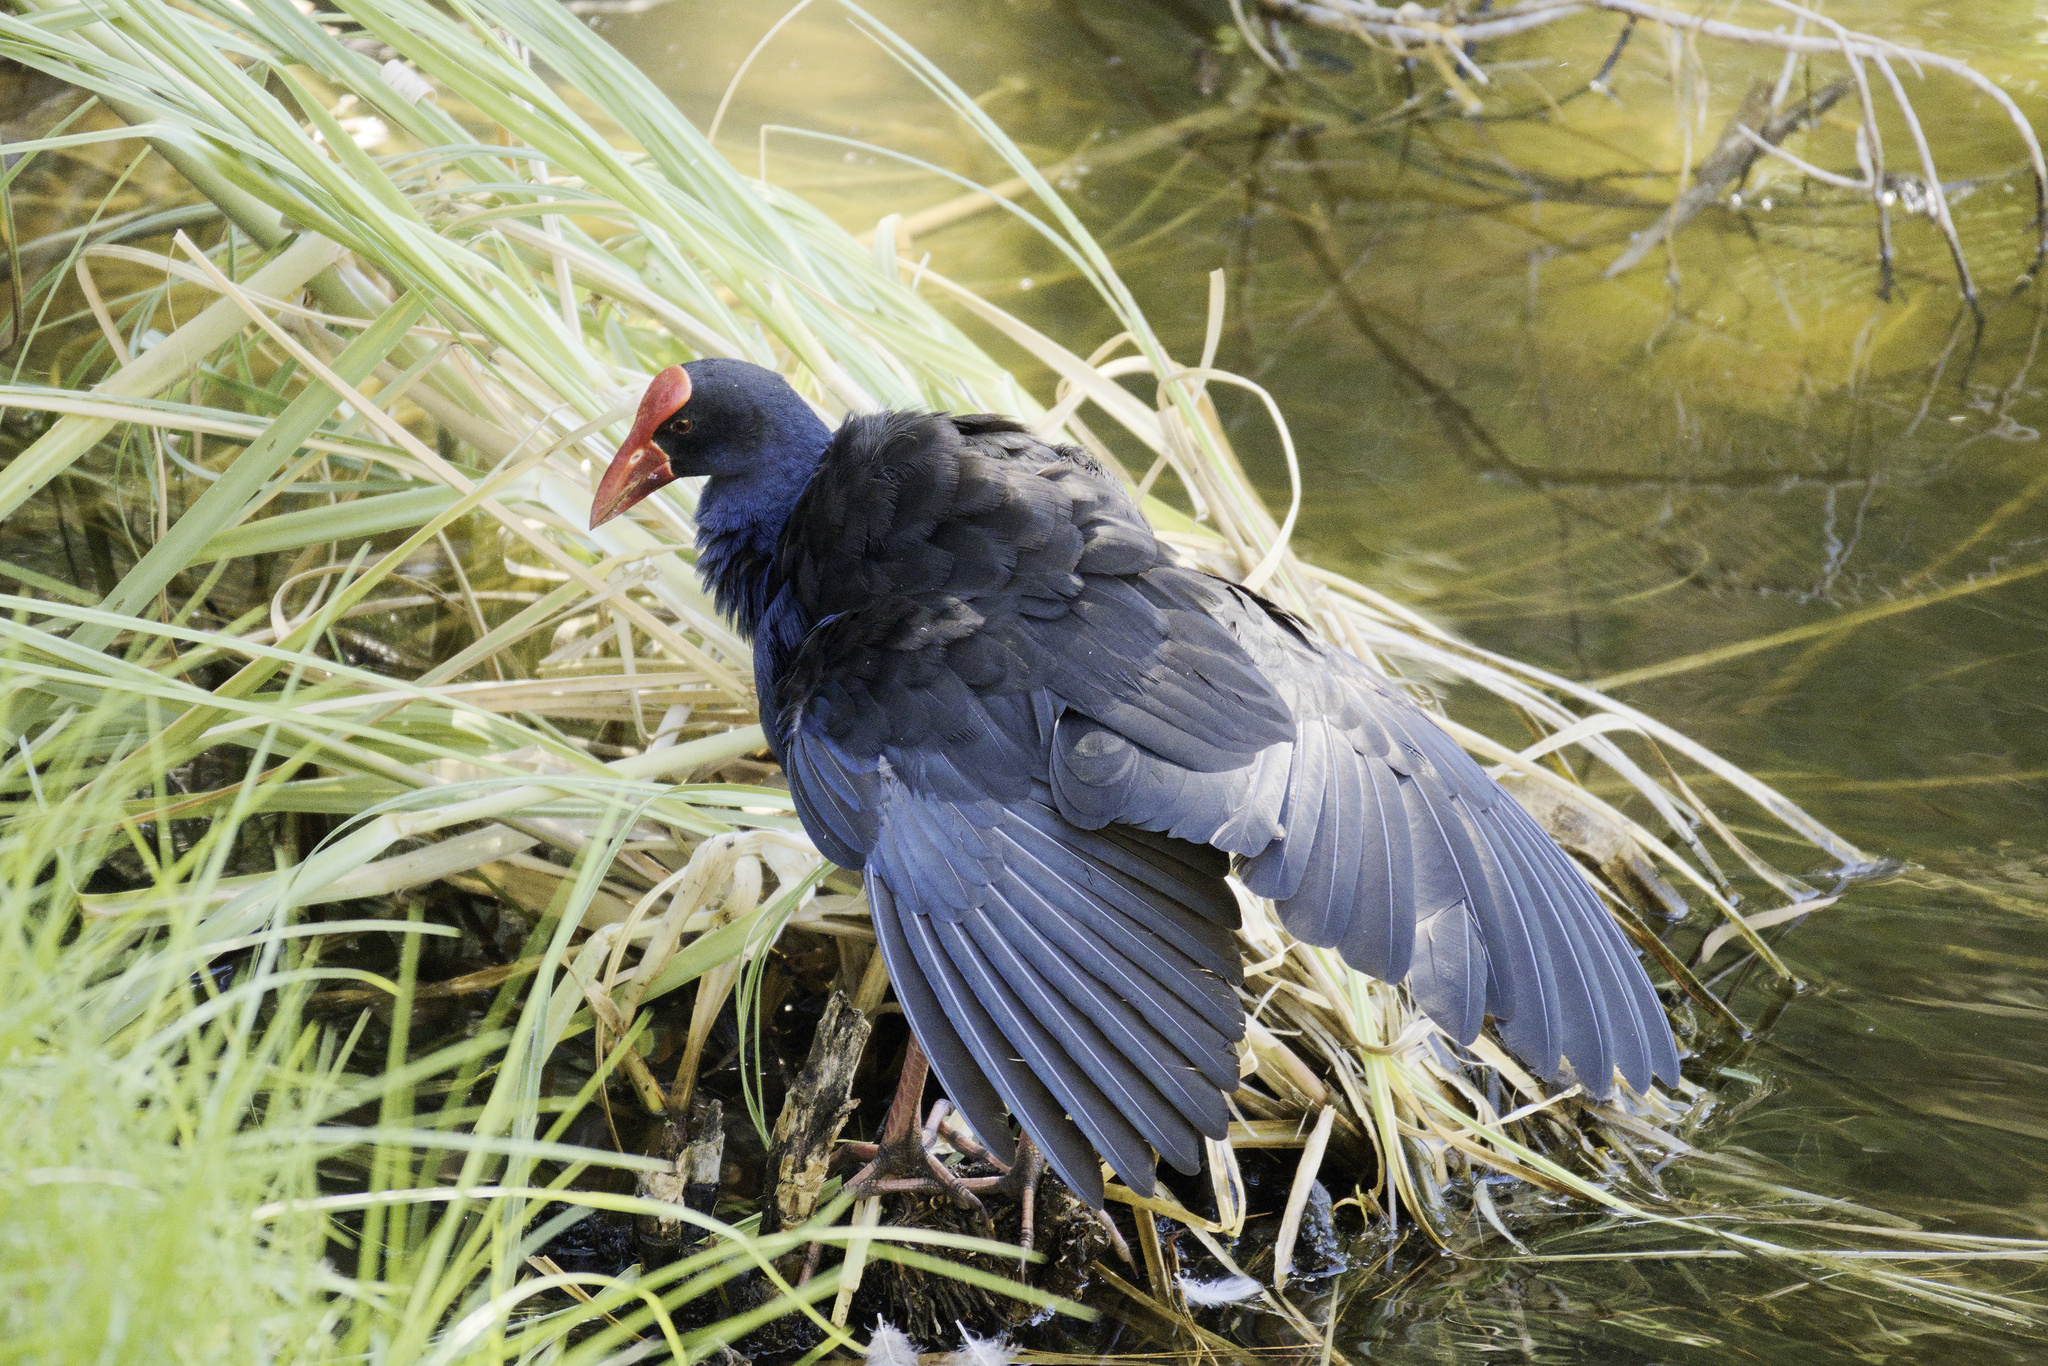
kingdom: Animalia
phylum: Chordata
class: Aves
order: Gruiformes
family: Rallidae
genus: Porphyrio
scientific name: Porphyrio melanotus
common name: Australasian swamphen
